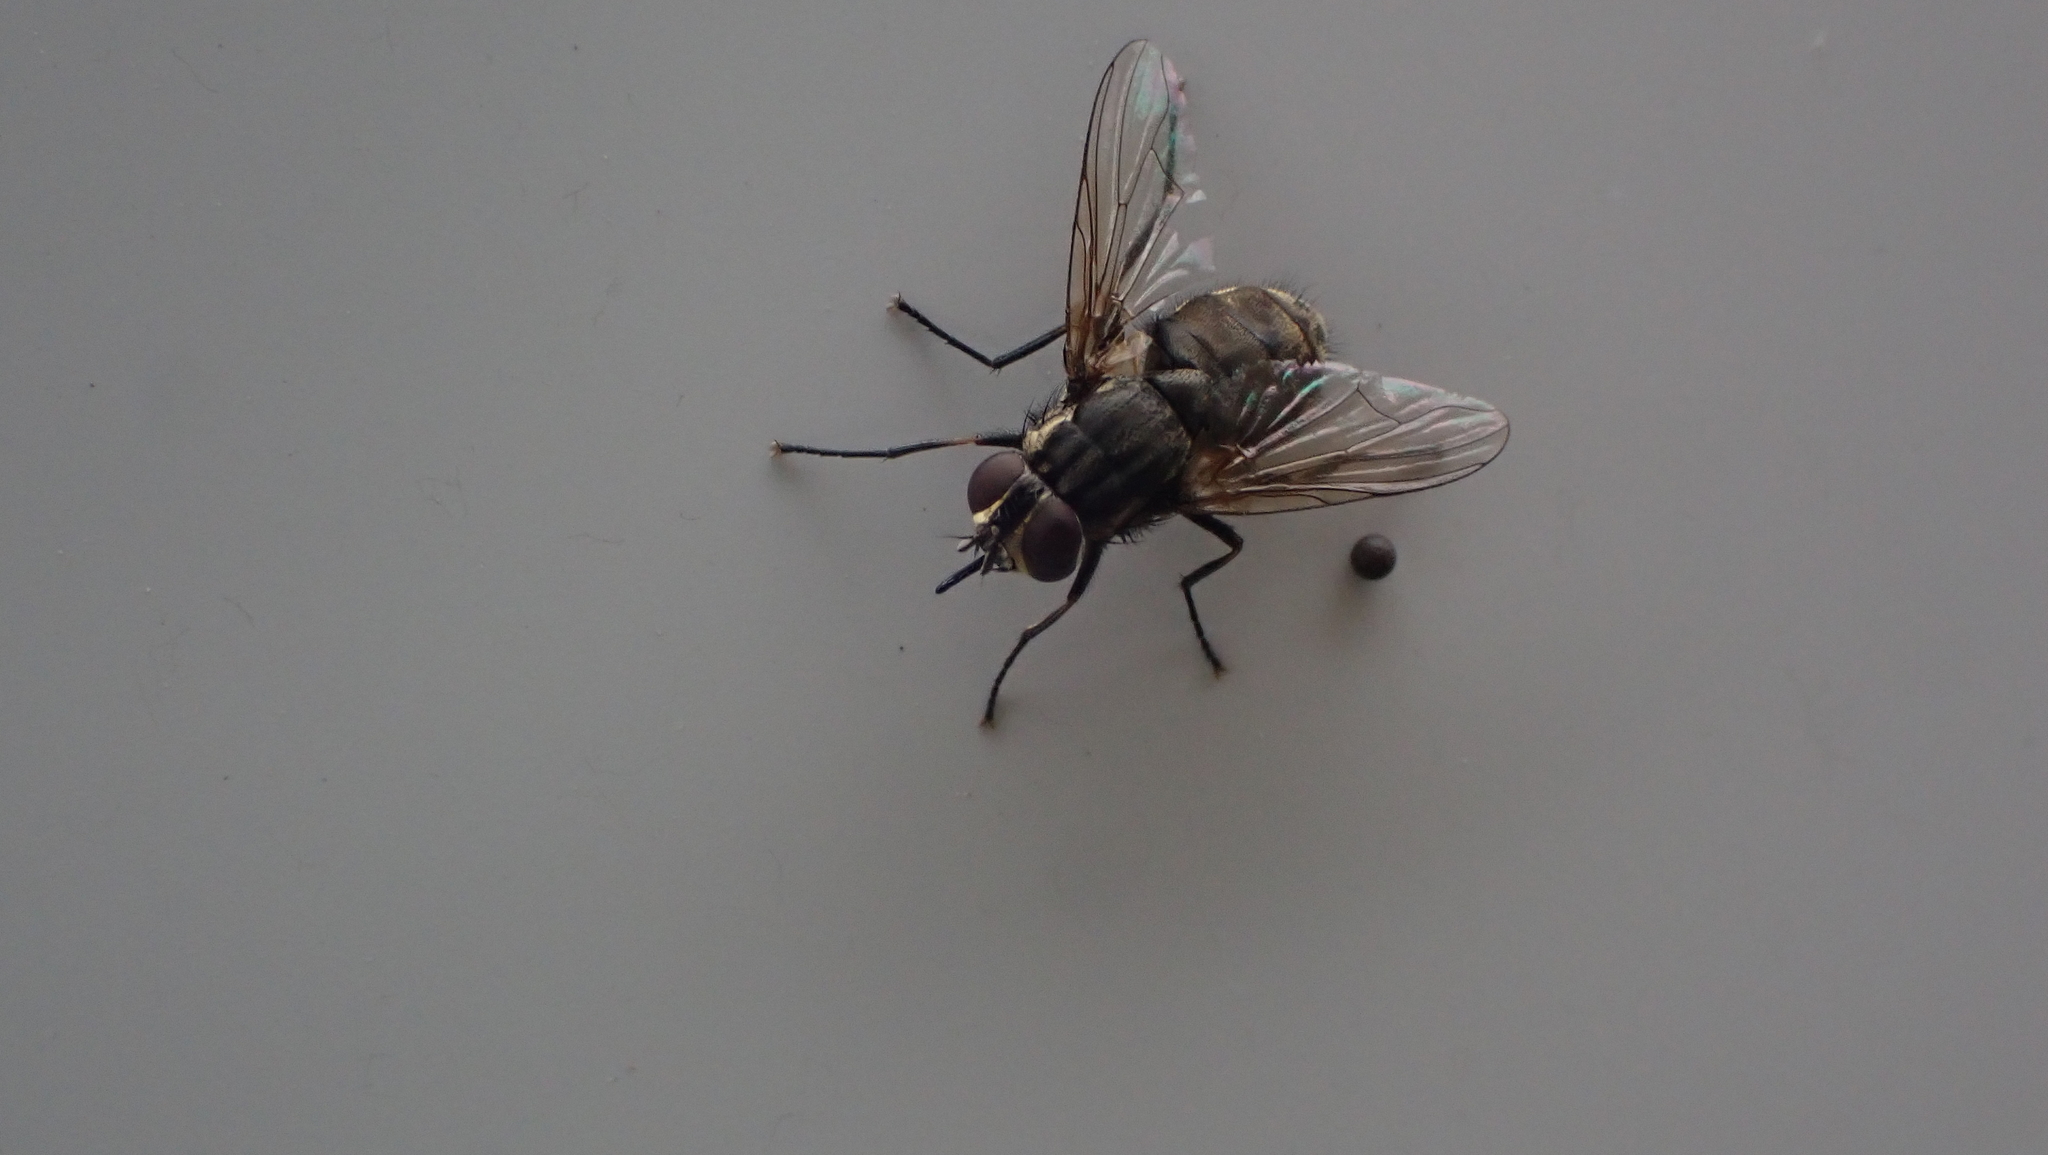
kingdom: Animalia
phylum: Arthropoda
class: Insecta
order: Diptera
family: Muscidae
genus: Stomoxys
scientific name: Stomoxys calcitrans
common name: Stable fly
